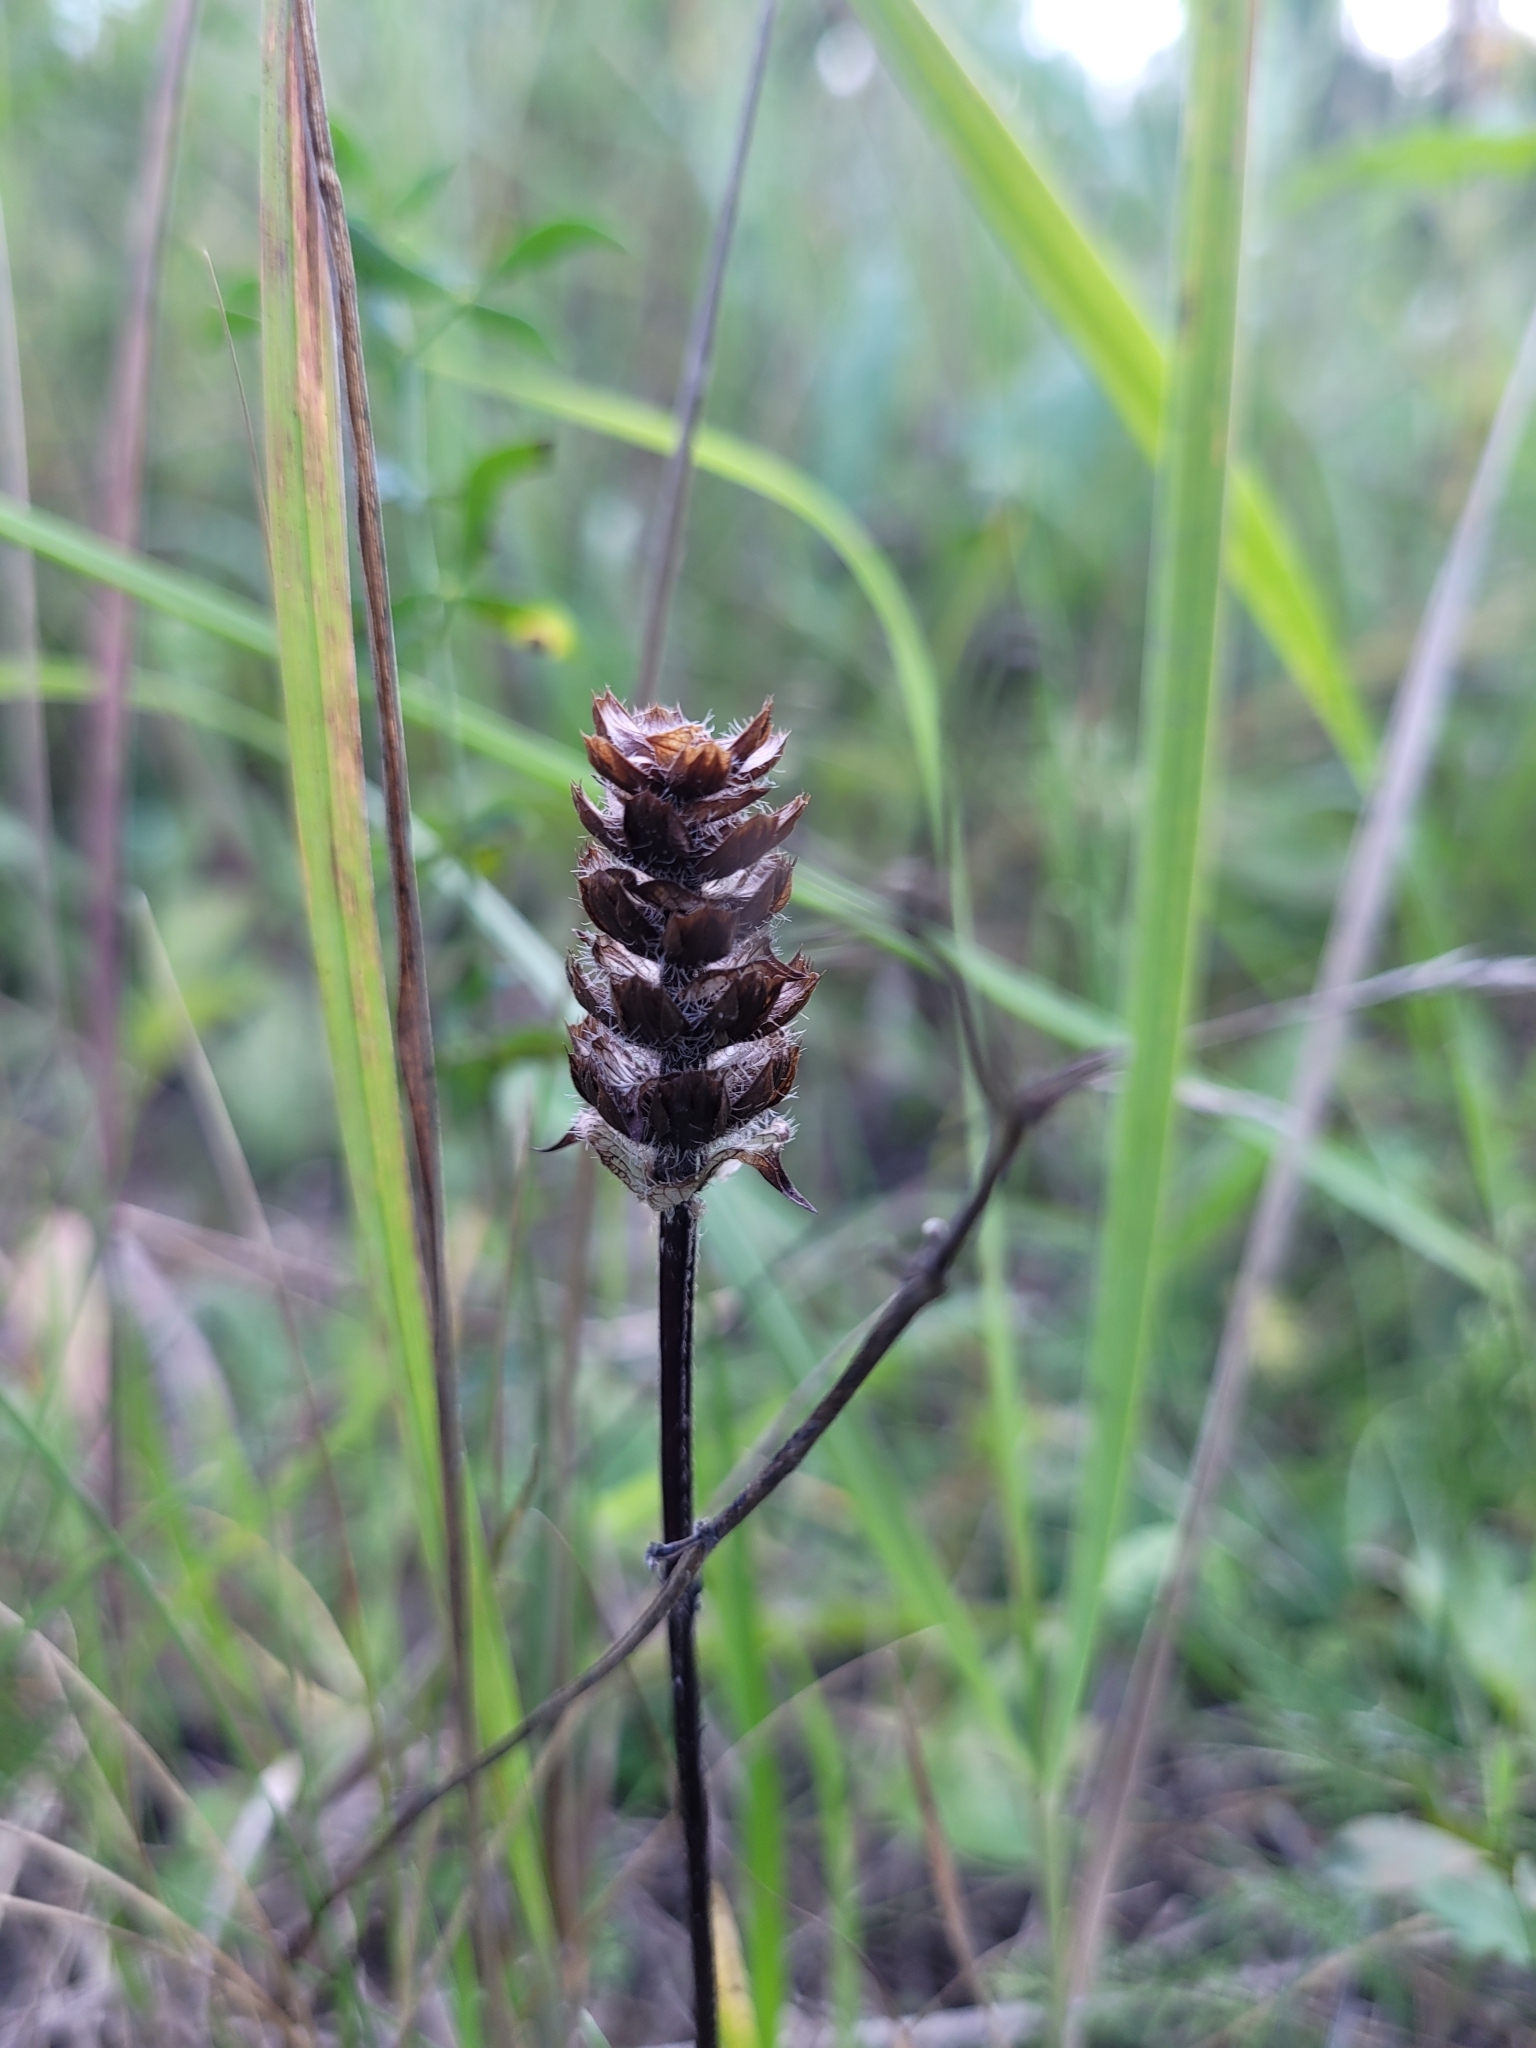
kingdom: Plantae
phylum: Tracheophyta
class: Magnoliopsida
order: Lamiales
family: Lamiaceae
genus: Prunella
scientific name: Prunella vulgaris
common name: Heal-all
